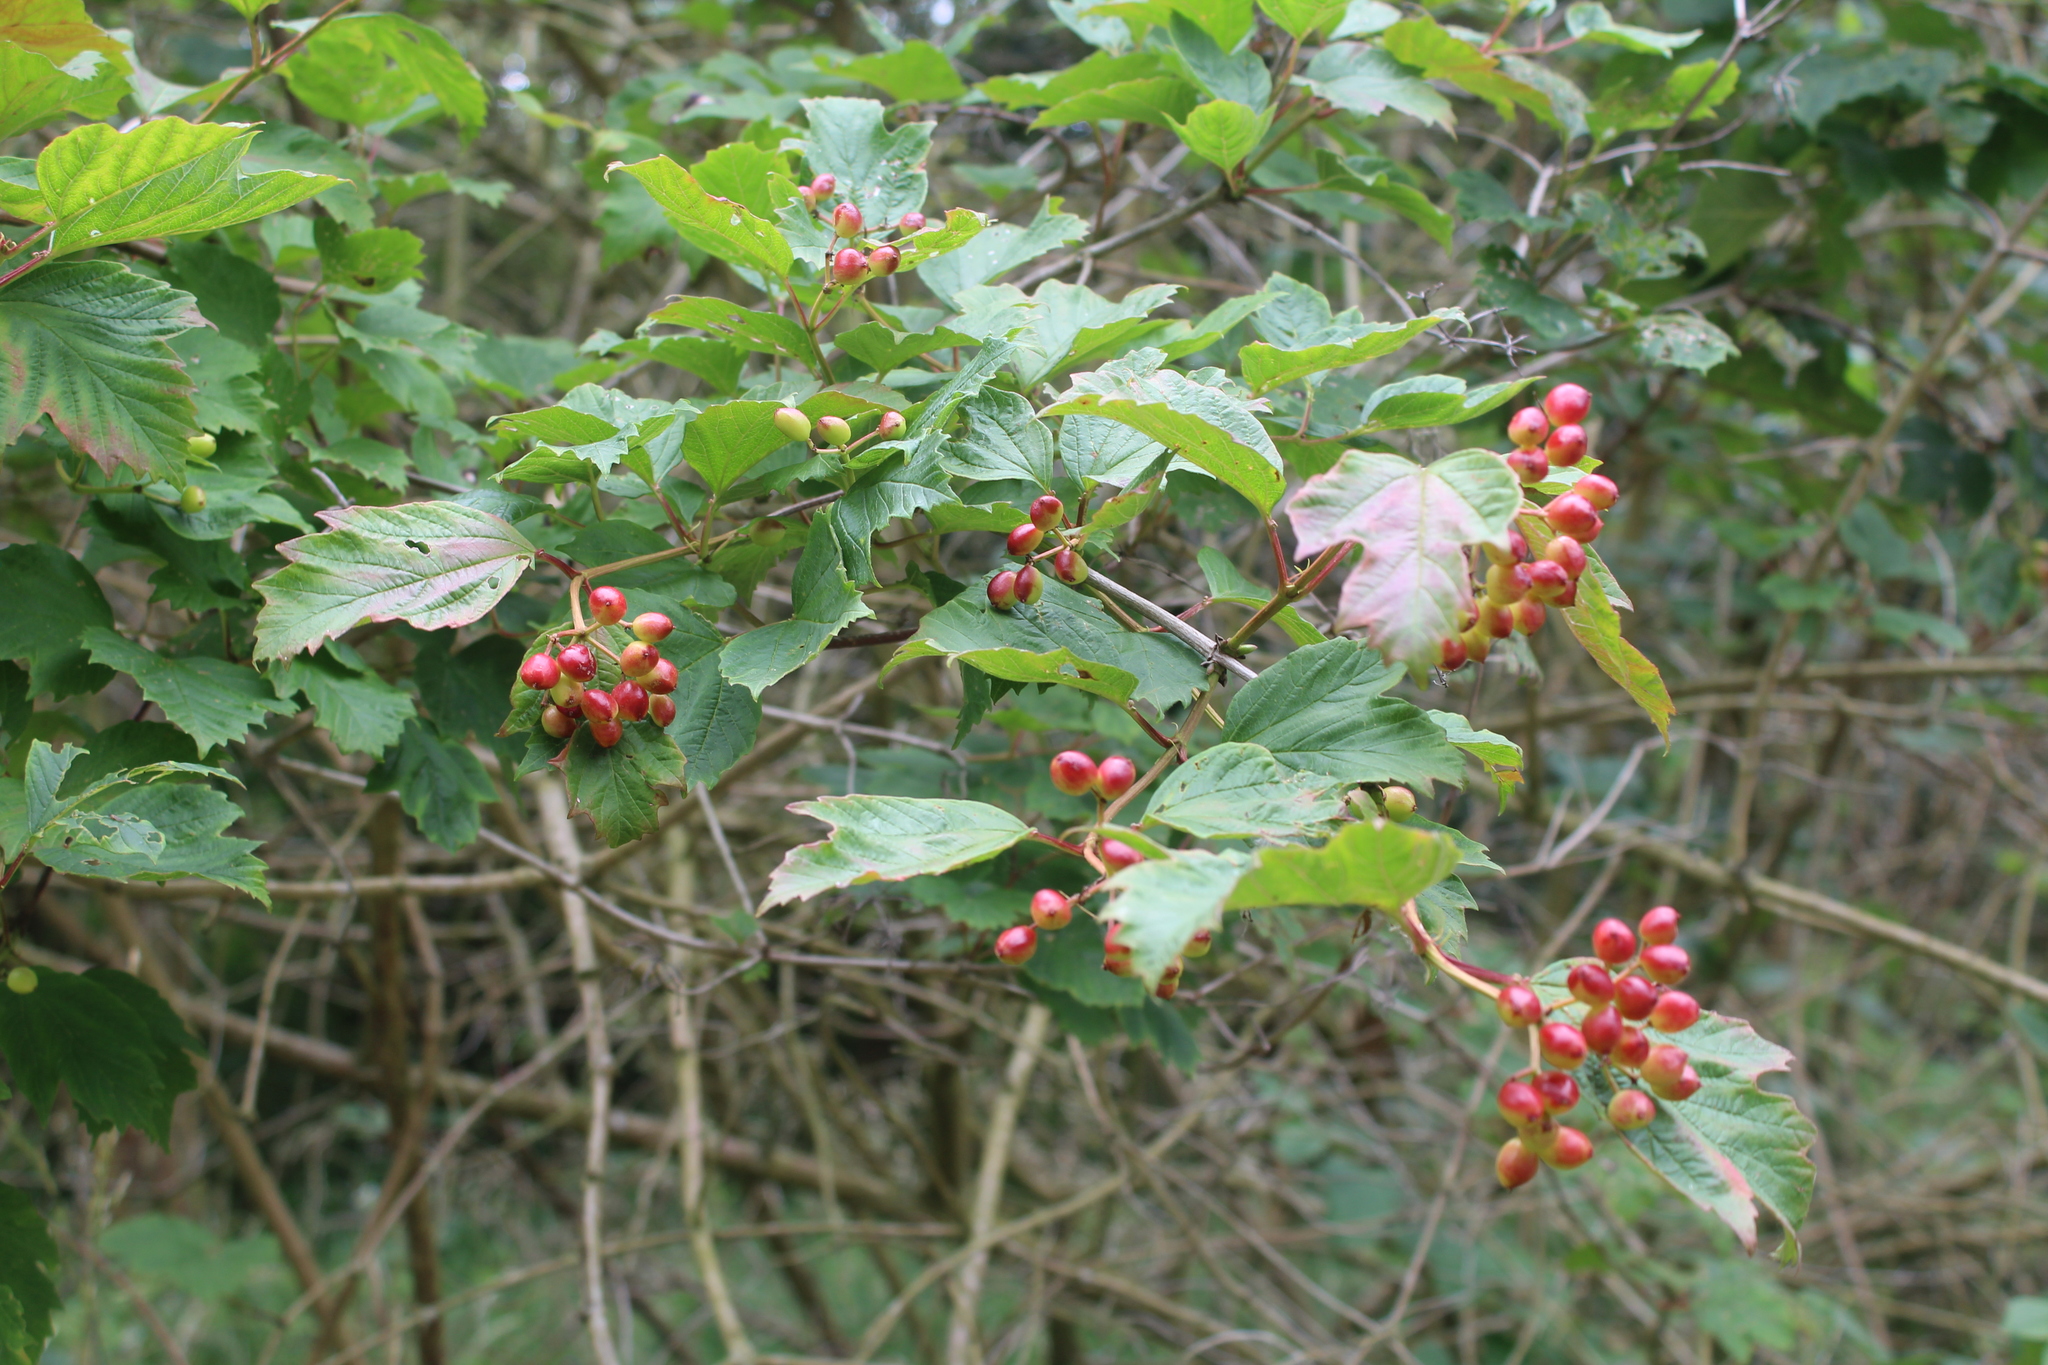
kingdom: Plantae
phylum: Tracheophyta
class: Magnoliopsida
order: Dipsacales
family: Viburnaceae
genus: Viburnum
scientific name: Viburnum opulus
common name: Guelder-rose
